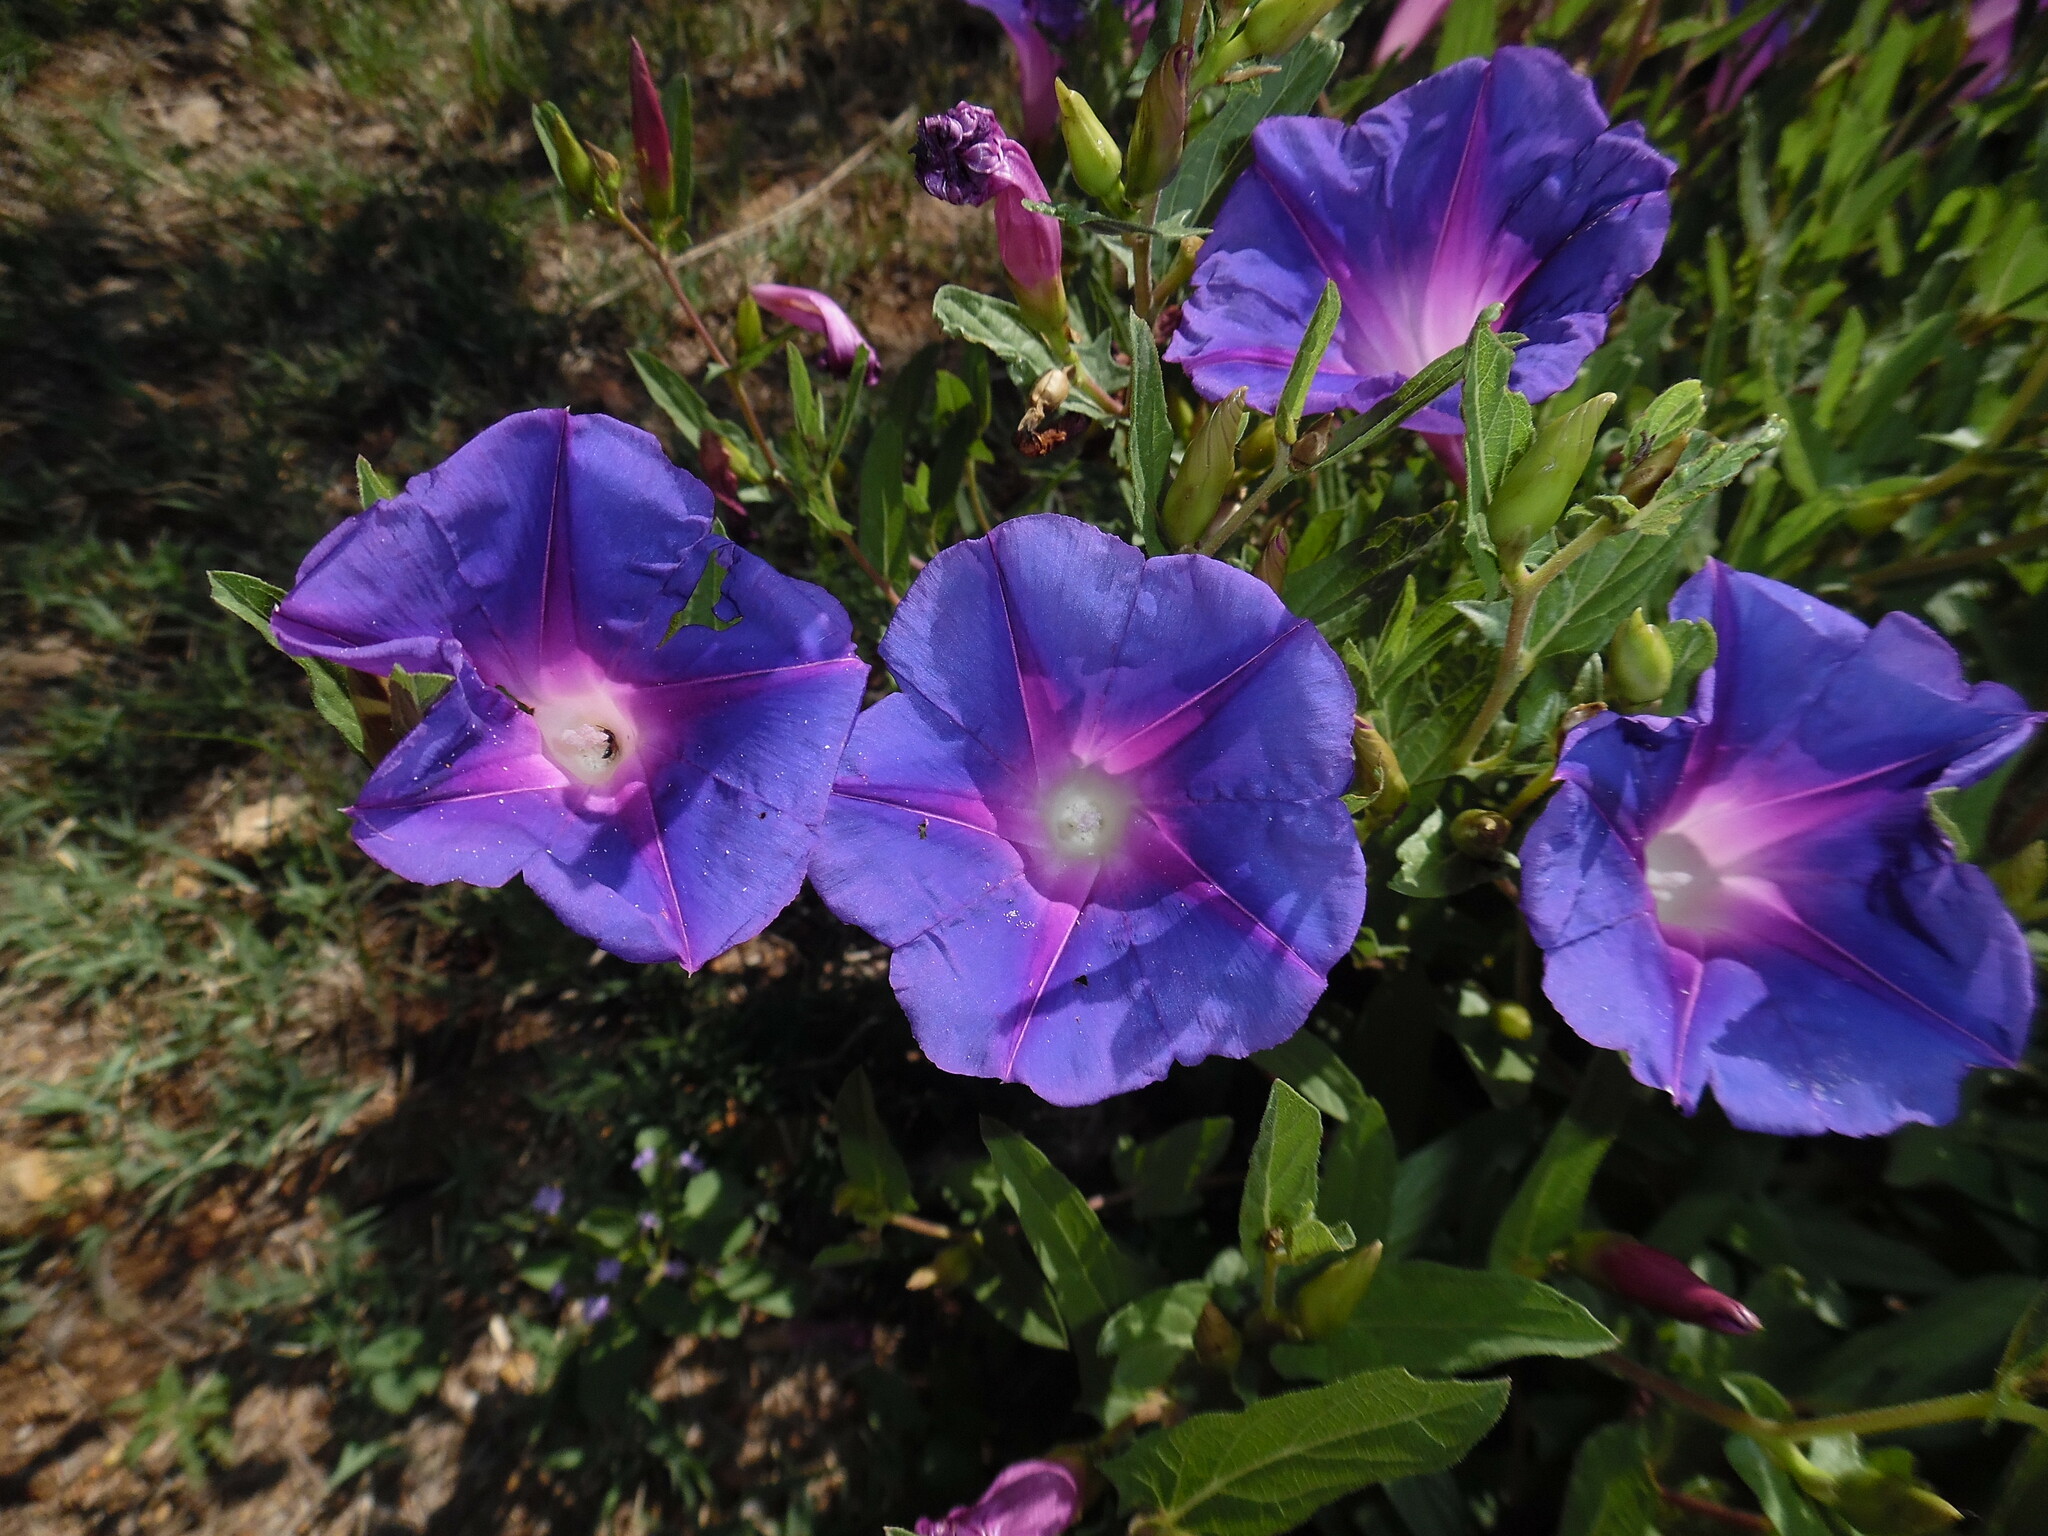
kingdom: Plantae
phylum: Tracheophyta
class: Magnoliopsida
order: Solanales
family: Convolvulaceae
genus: Ipomoea
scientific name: Ipomoea stans
